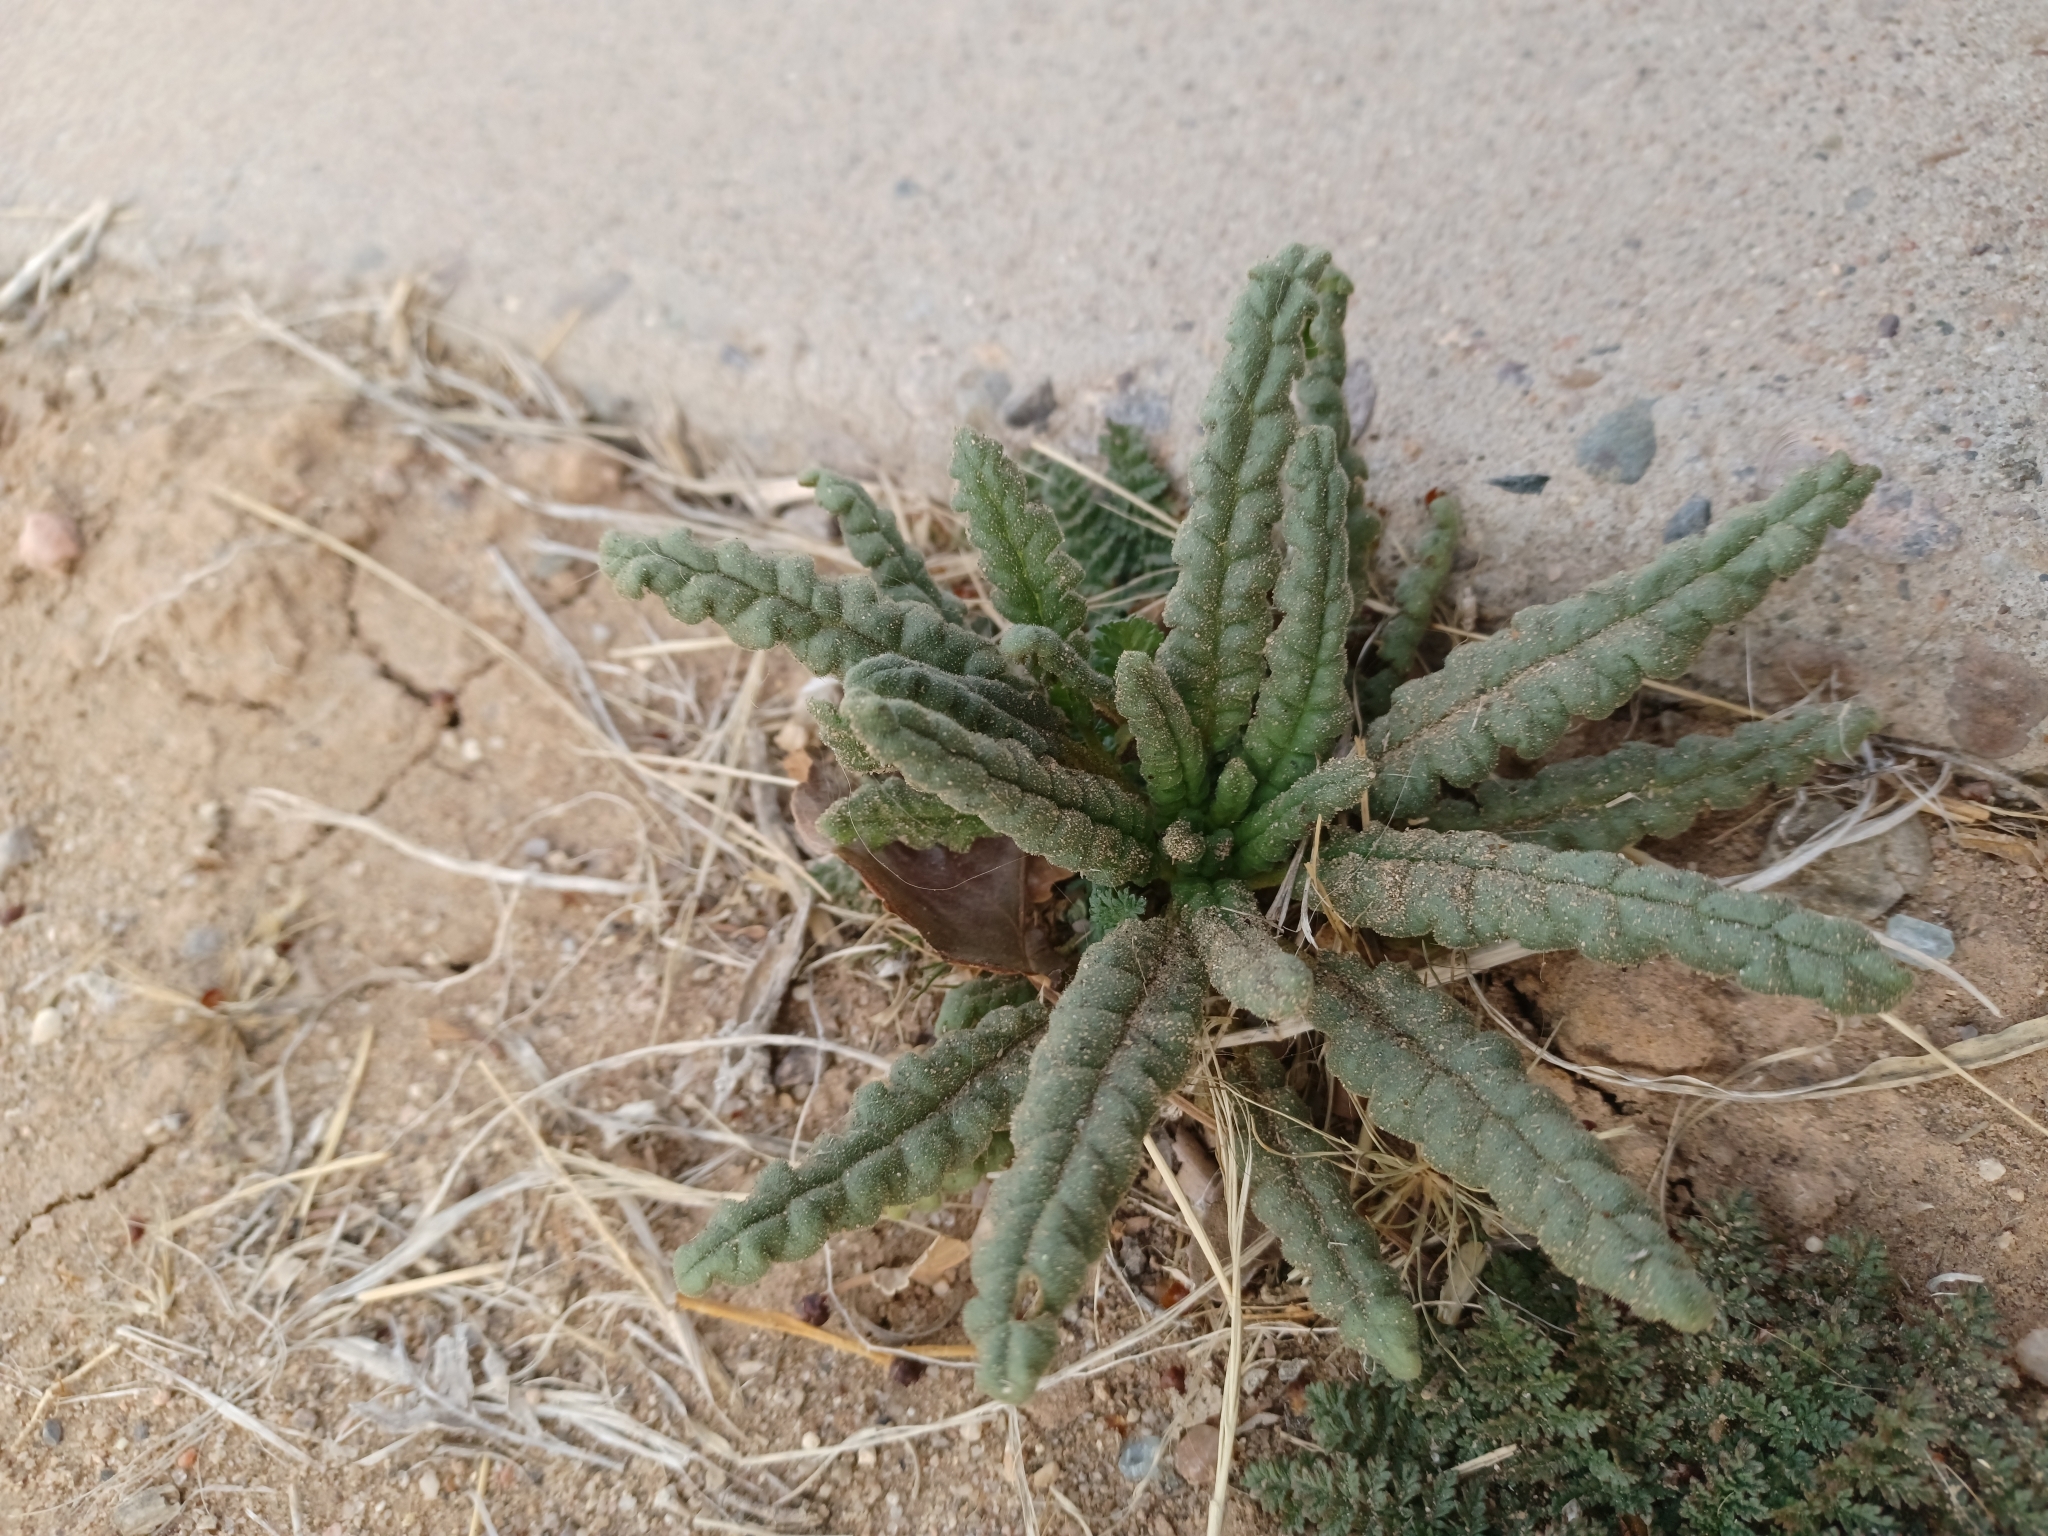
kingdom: Plantae
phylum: Tracheophyta
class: Magnoliopsida
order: Boraginales
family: Hydrophyllaceae
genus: Phacelia
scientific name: Phacelia integrifolia
